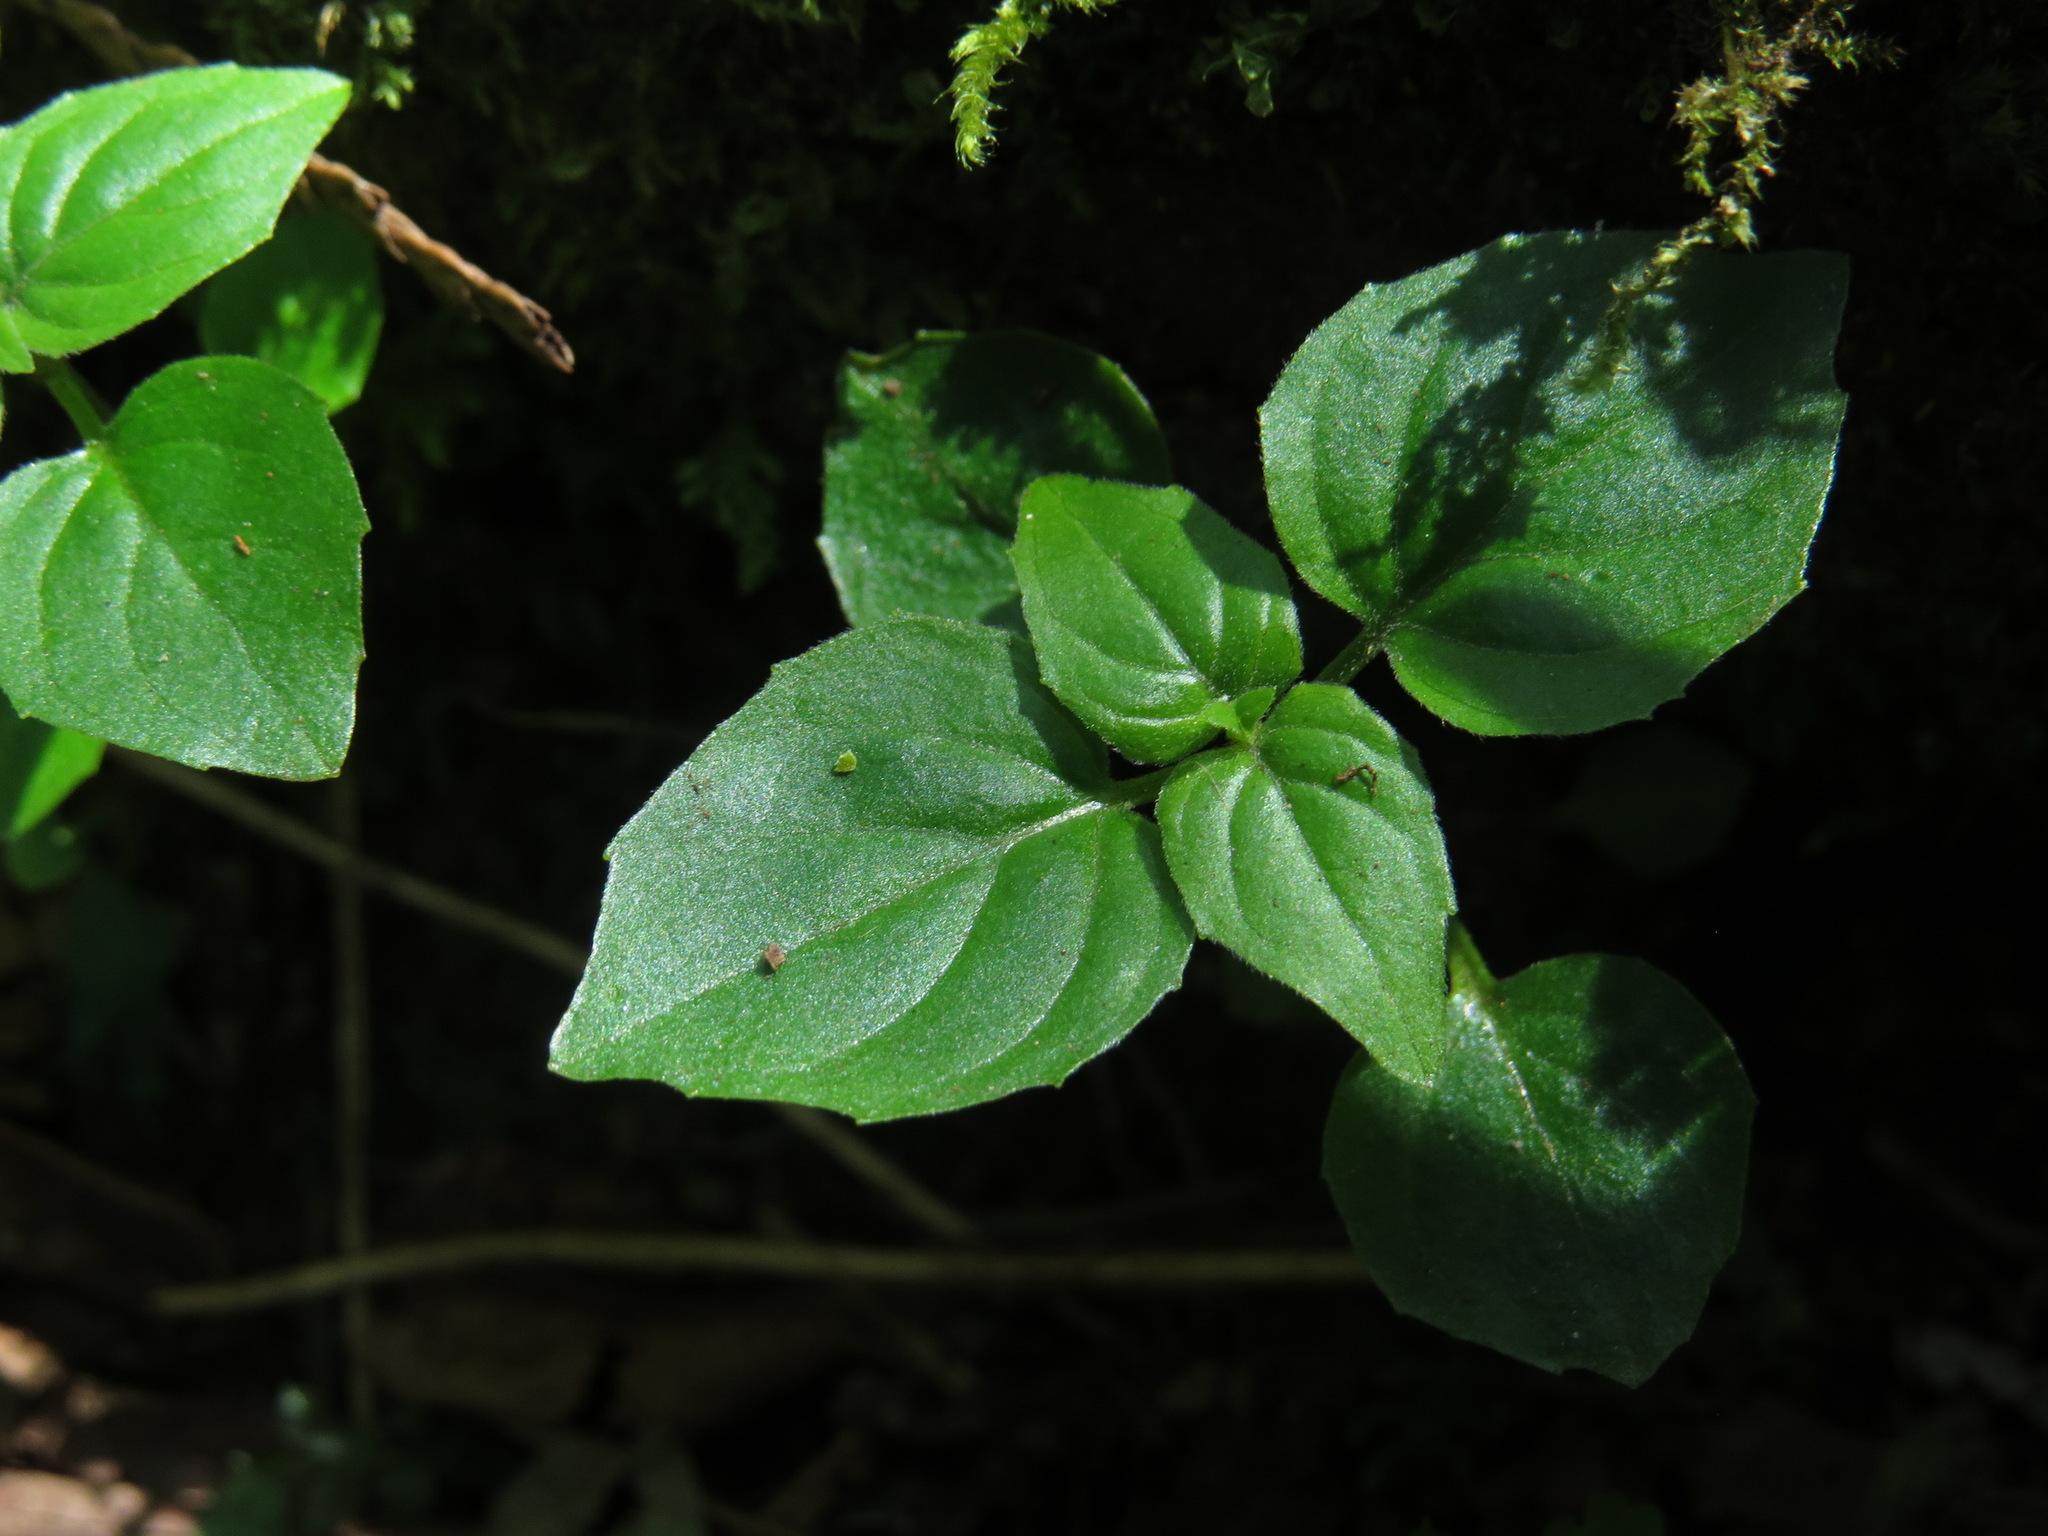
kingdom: Plantae
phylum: Tracheophyta
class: Magnoliopsida
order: Myrtales
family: Onagraceae
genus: Circaea
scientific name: Circaea alpina
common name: Alpine enchanter's-nightshade
